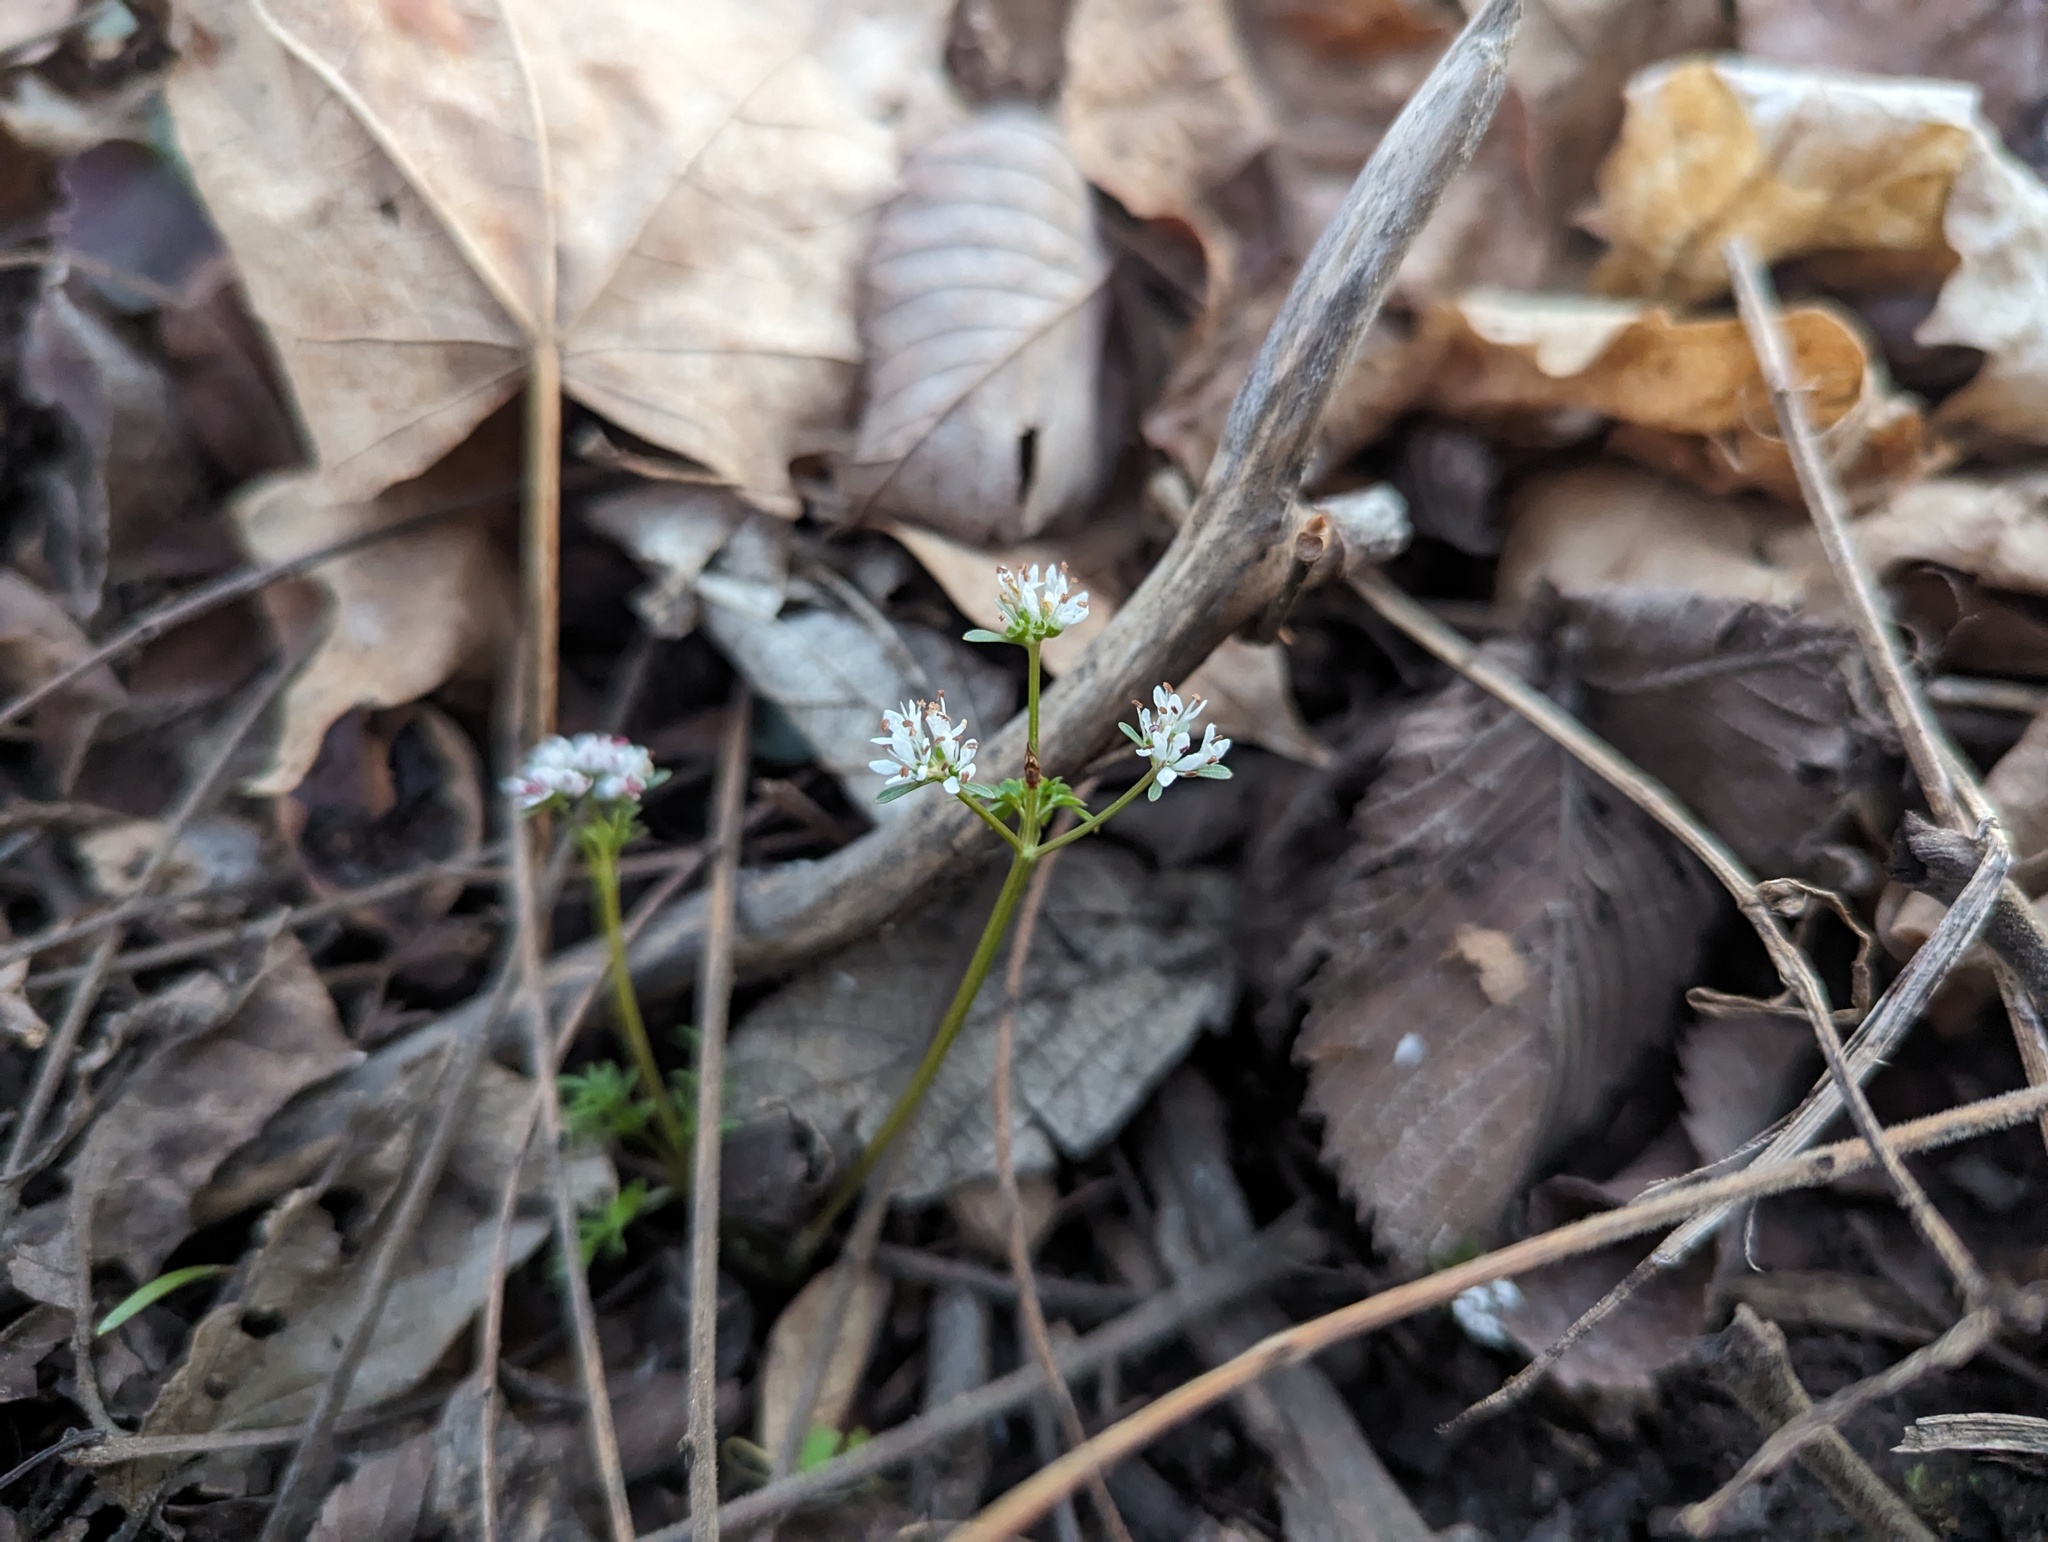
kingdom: Plantae
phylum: Tracheophyta
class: Magnoliopsida
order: Apiales
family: Apiaceae
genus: Erigenia
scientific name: Erigenia bulbosa
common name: Pepper-and-salt
